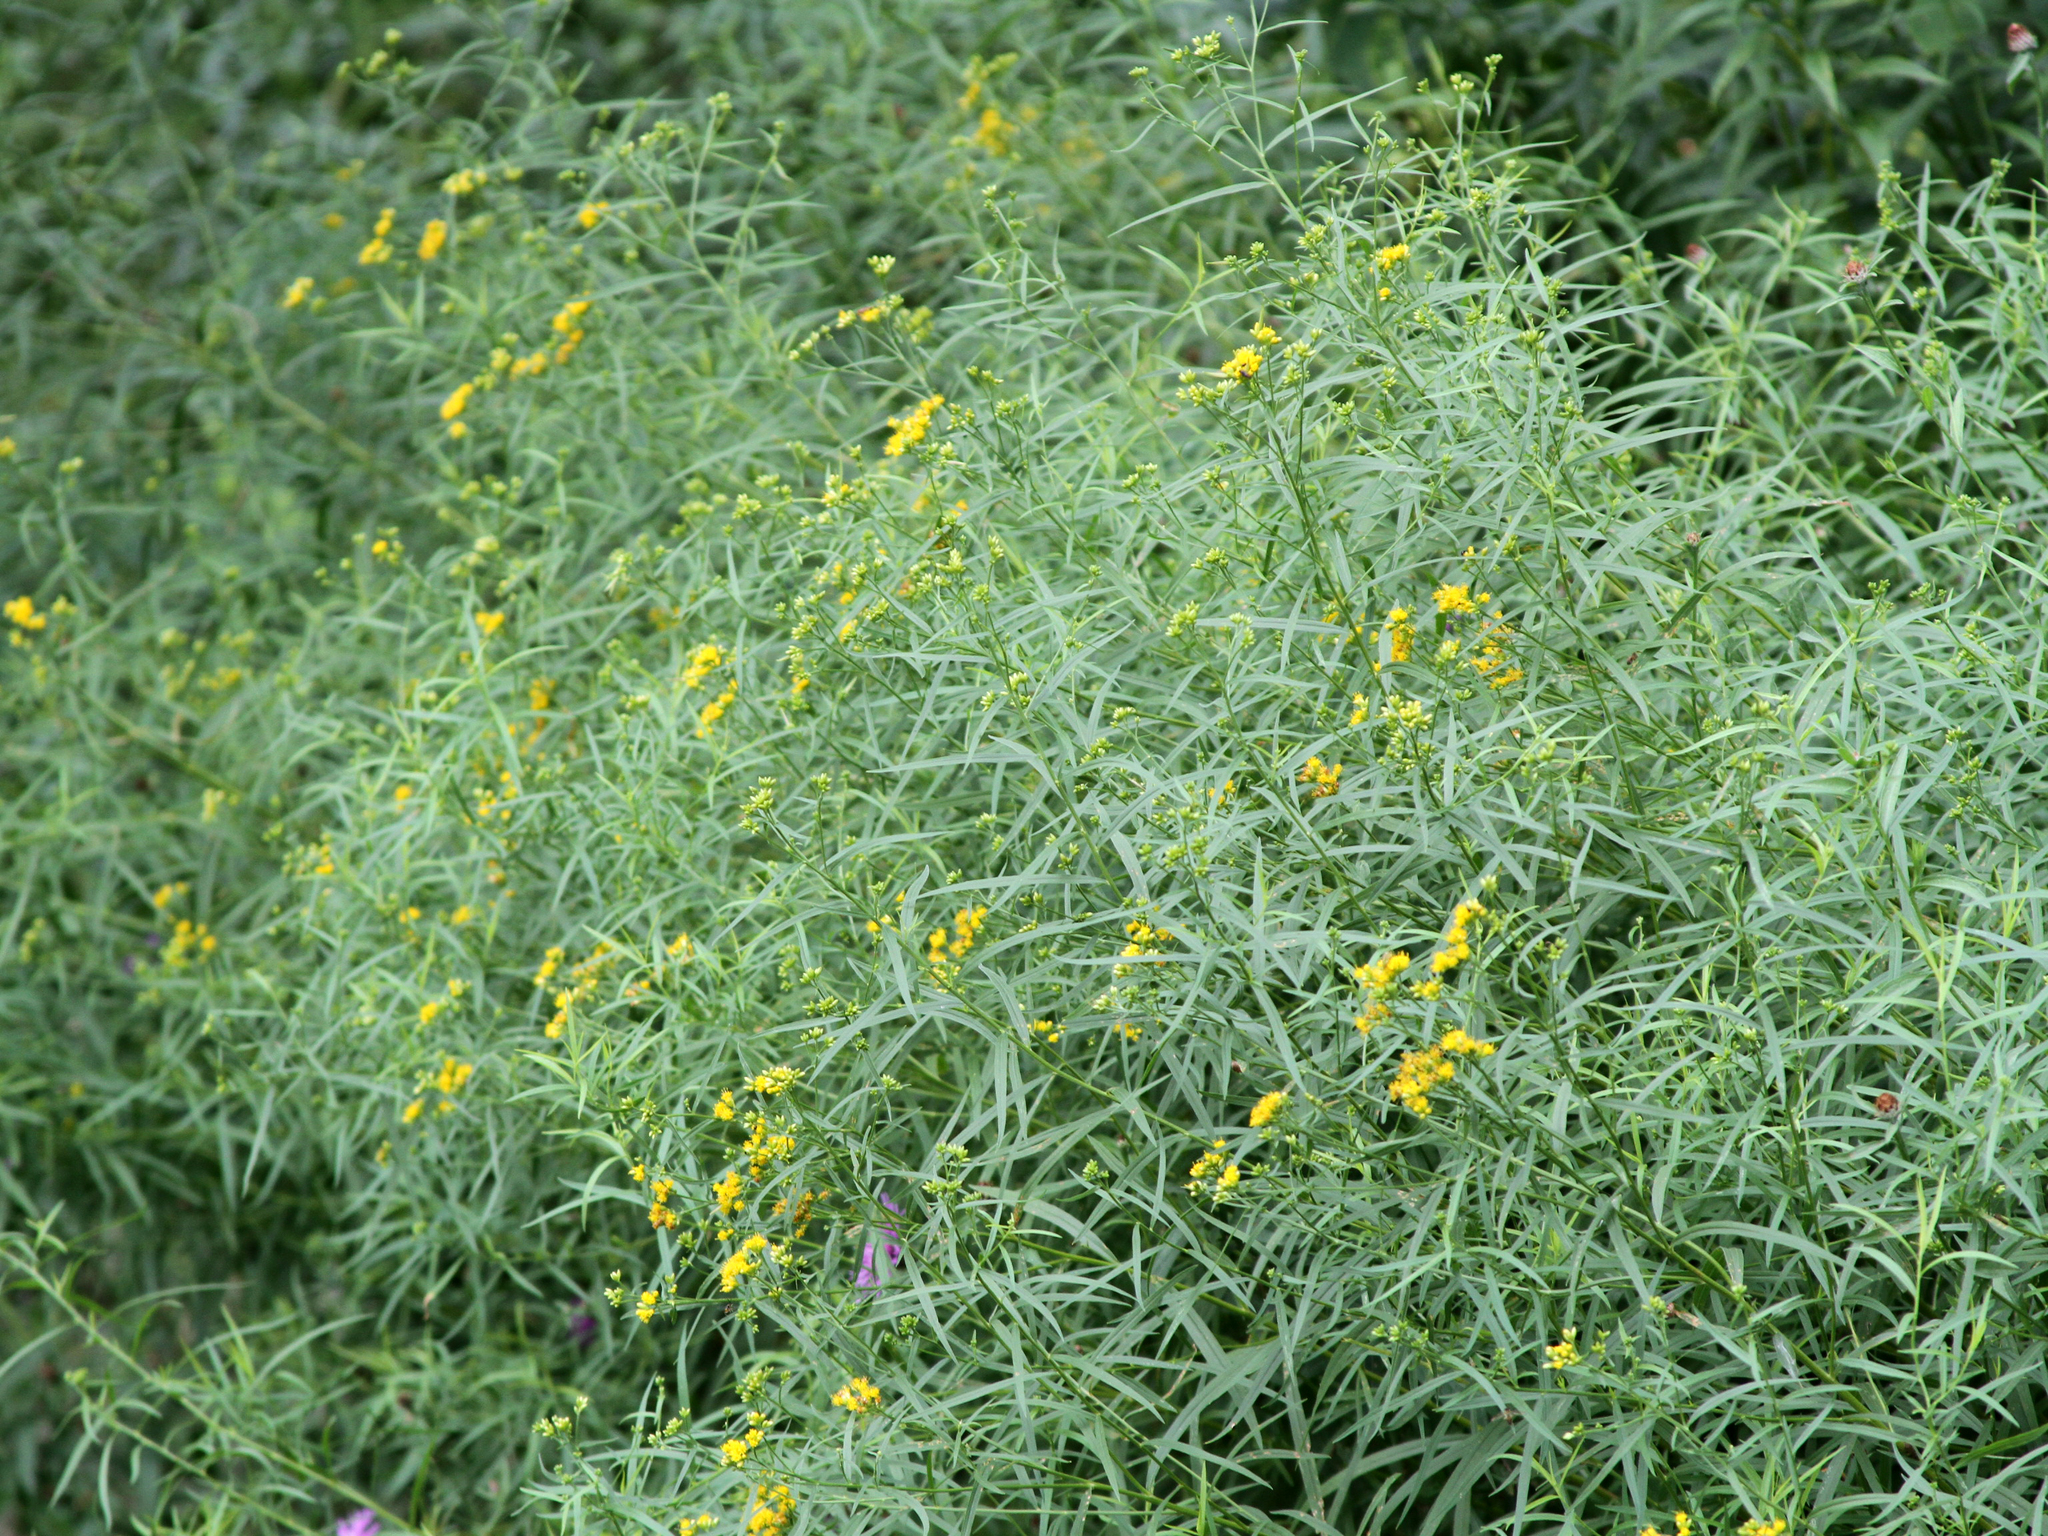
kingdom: Plantae
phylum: Tracheophyta
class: Magnoliopsida
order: Asterales
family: Asteraceae
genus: Euthamia
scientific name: Euthamia graminifolia
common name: Common goldentop
